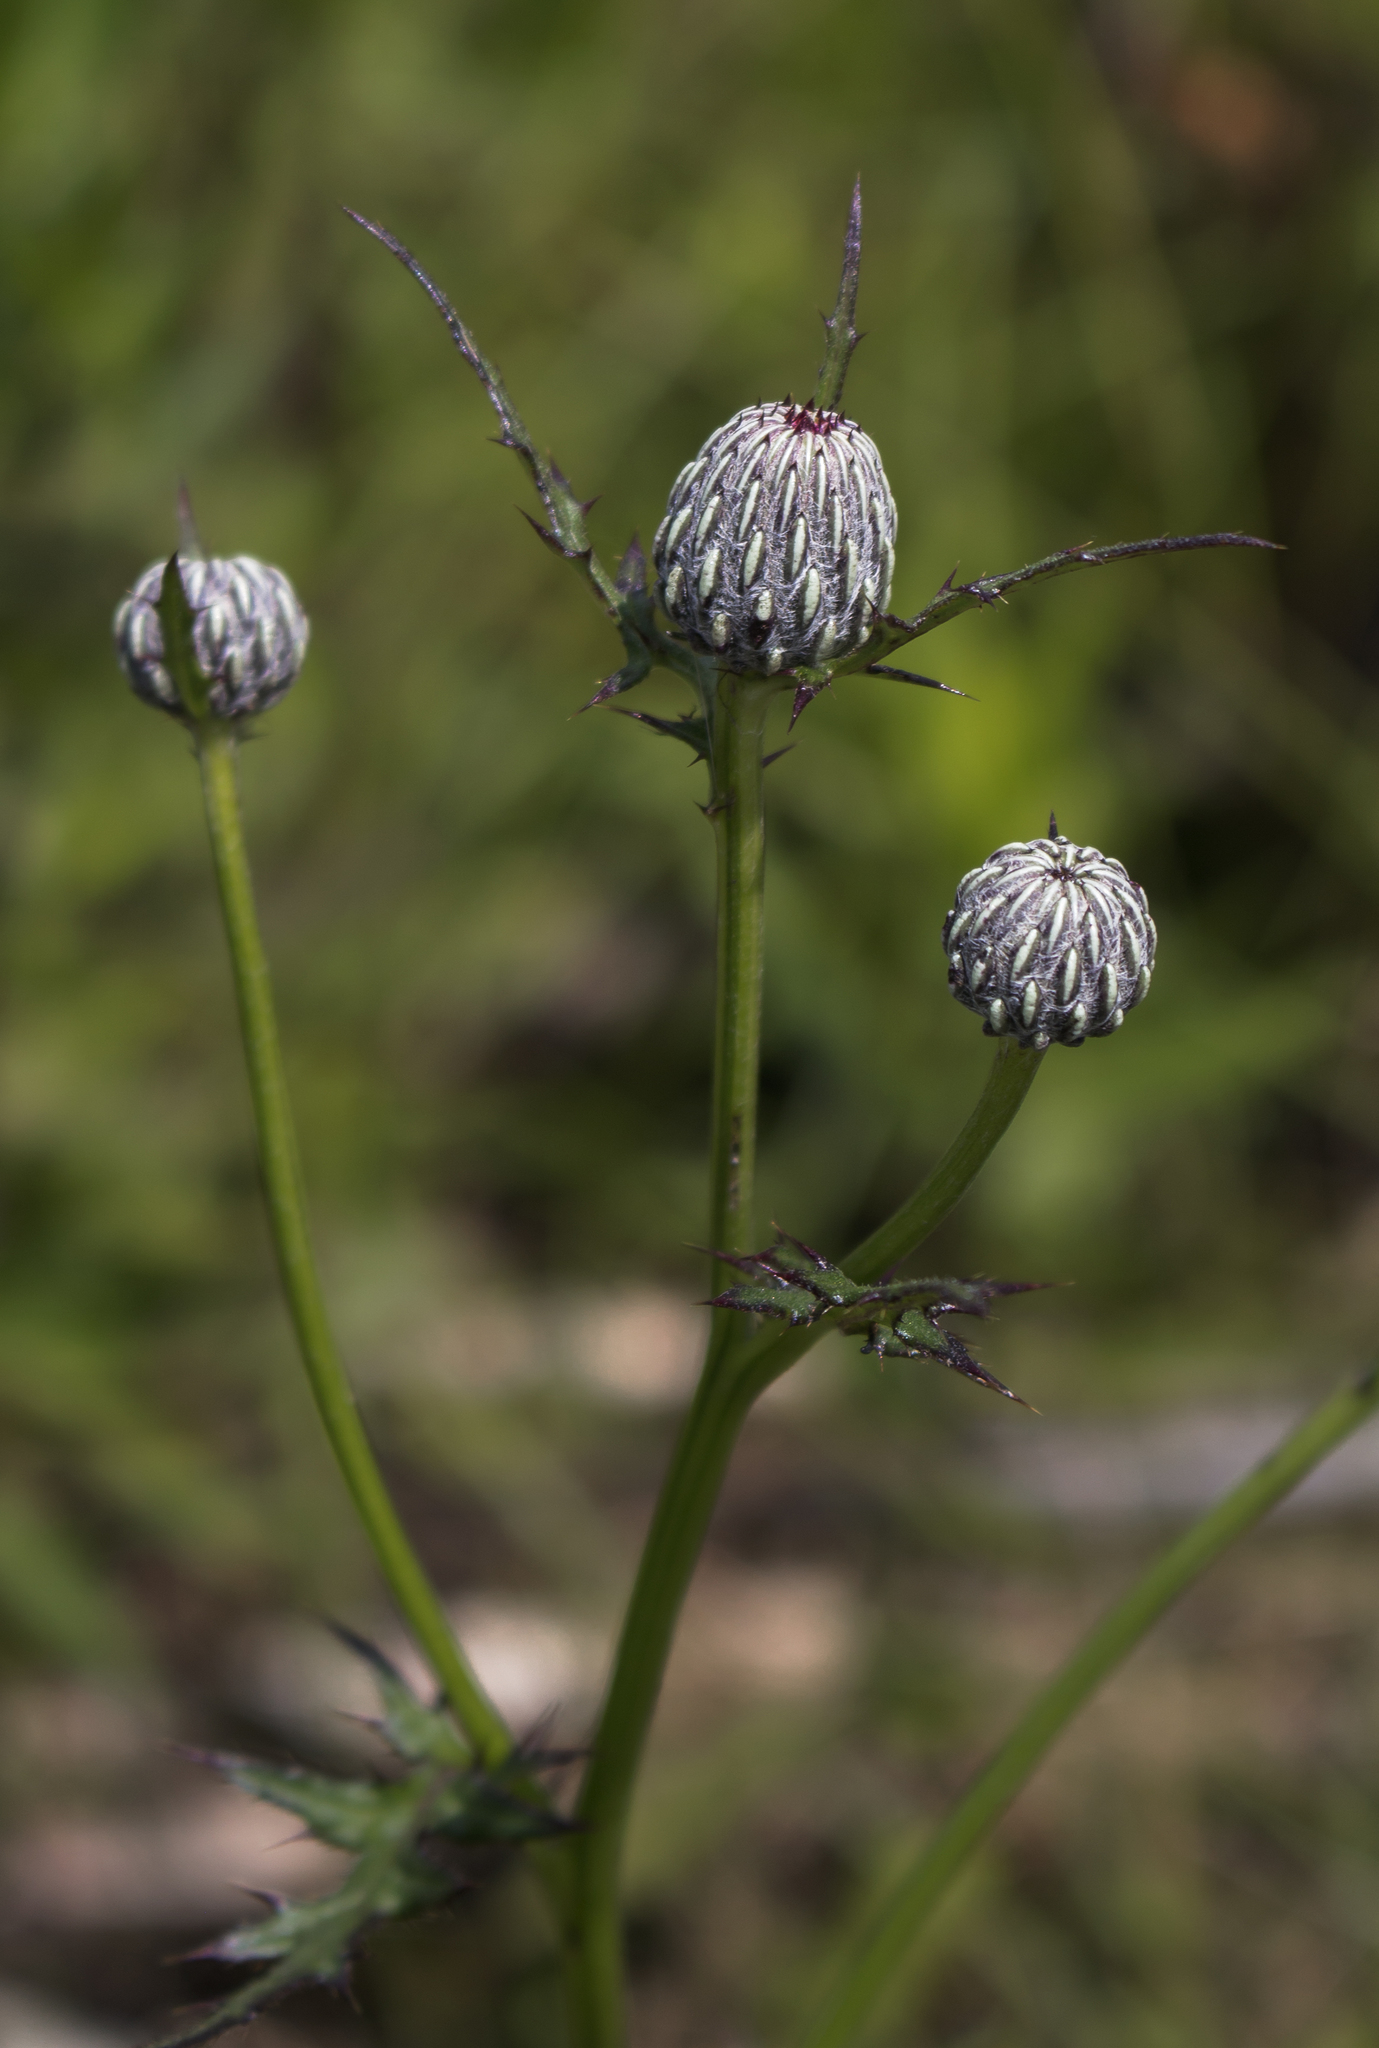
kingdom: Plantae
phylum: Tracheophyta
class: Magnoliopsida
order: Asterales
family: Asteraceae
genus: Cirsium
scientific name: Cirsium muticum
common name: Dunce-nettle
